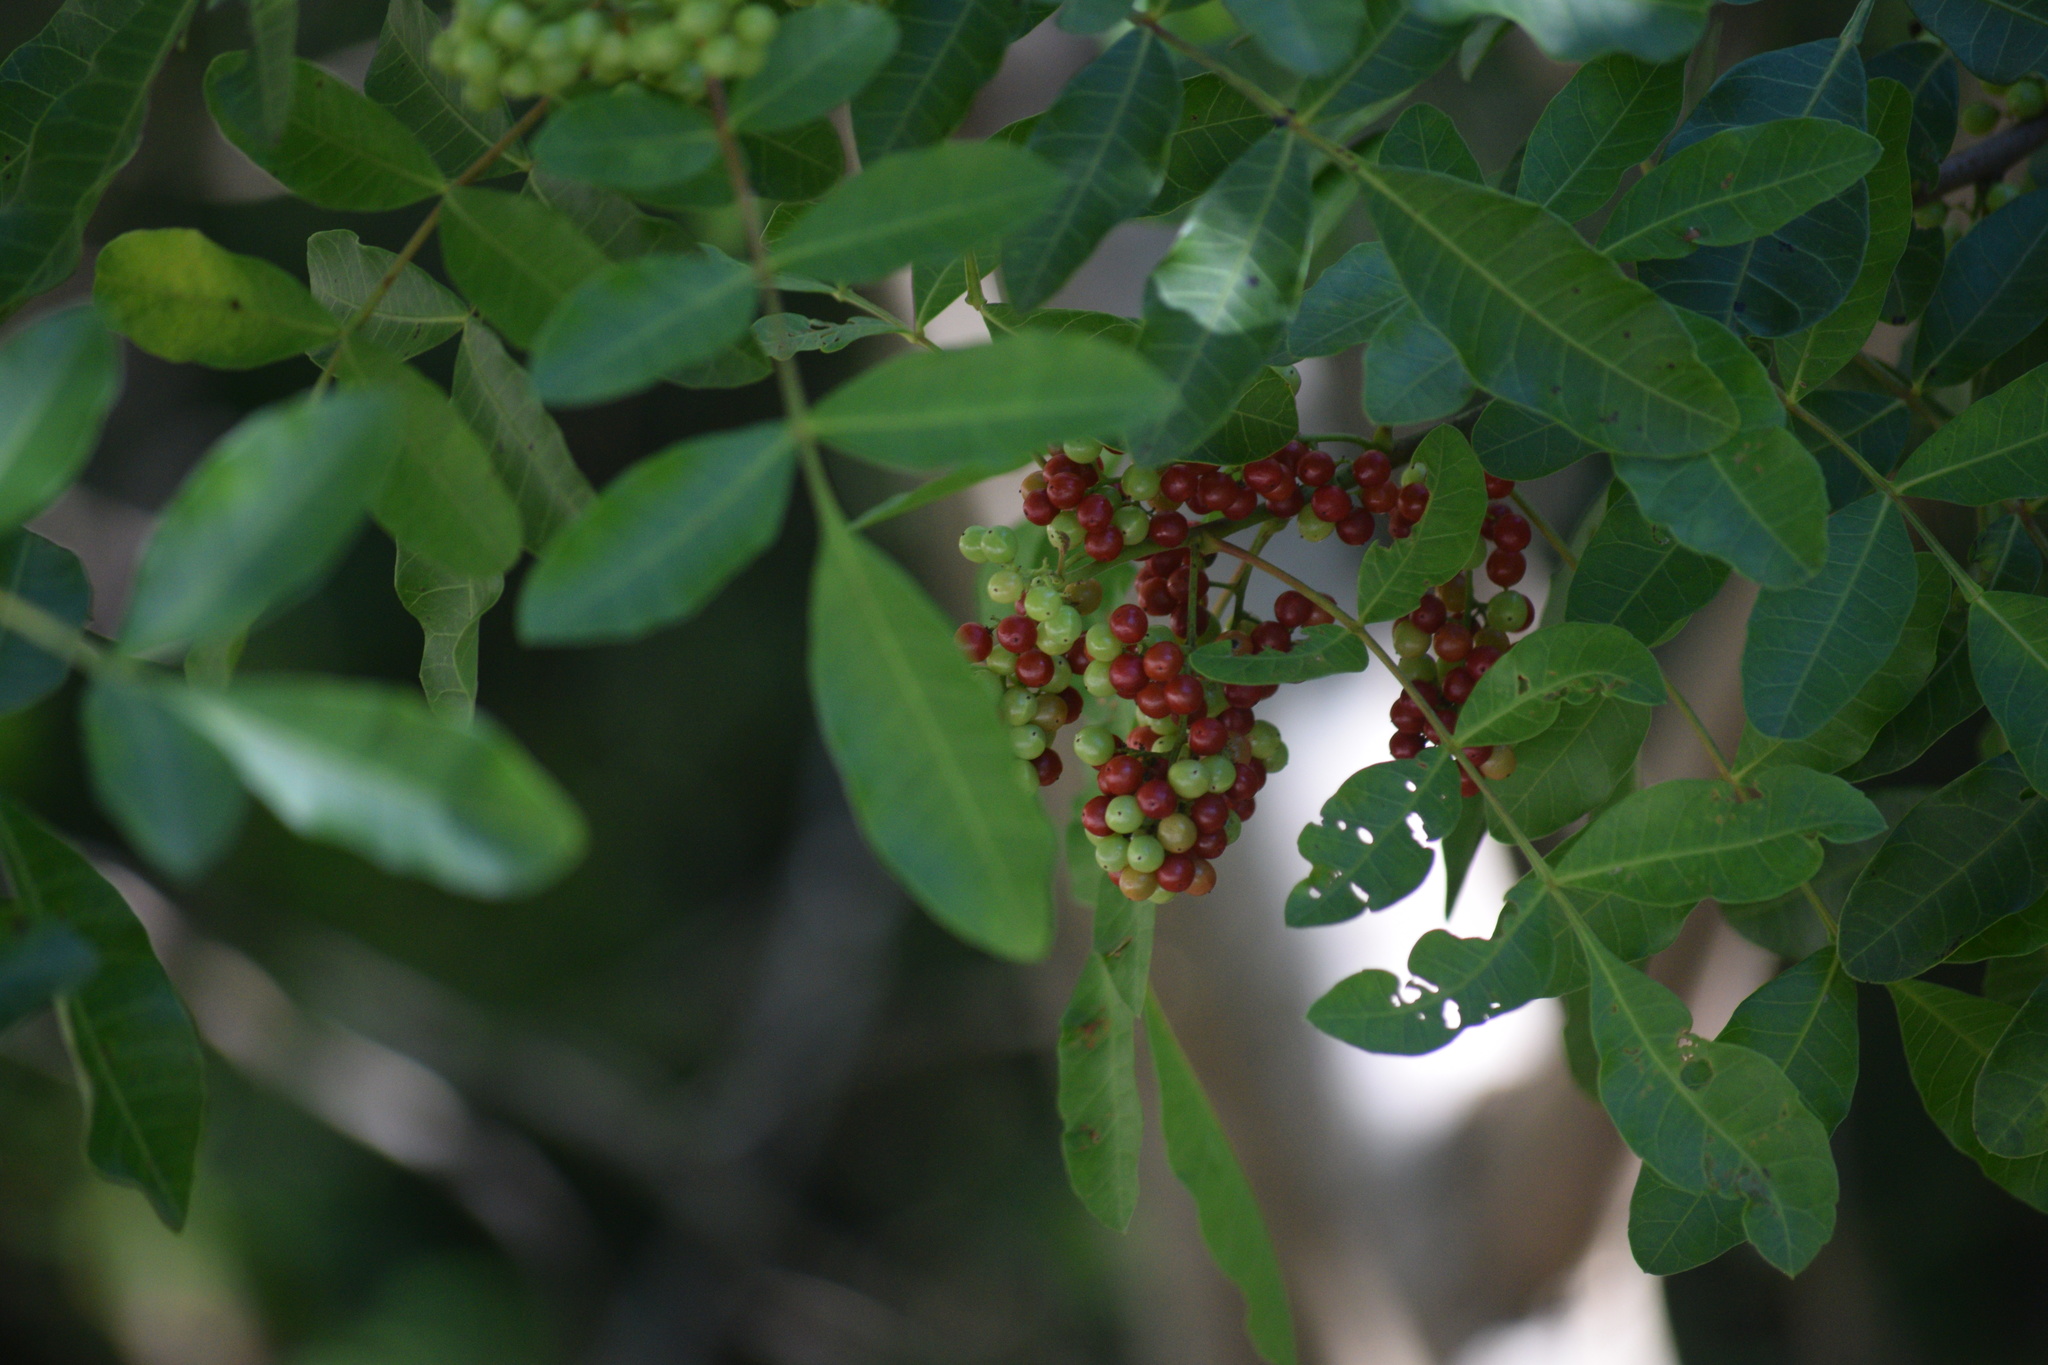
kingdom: Plantae
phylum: Tracheophyta
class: Magnoliopsida
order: Sapindales
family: Anacardiaceae
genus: Schinus
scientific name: Schinus terebinthifolia
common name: Brazilian peppertree
